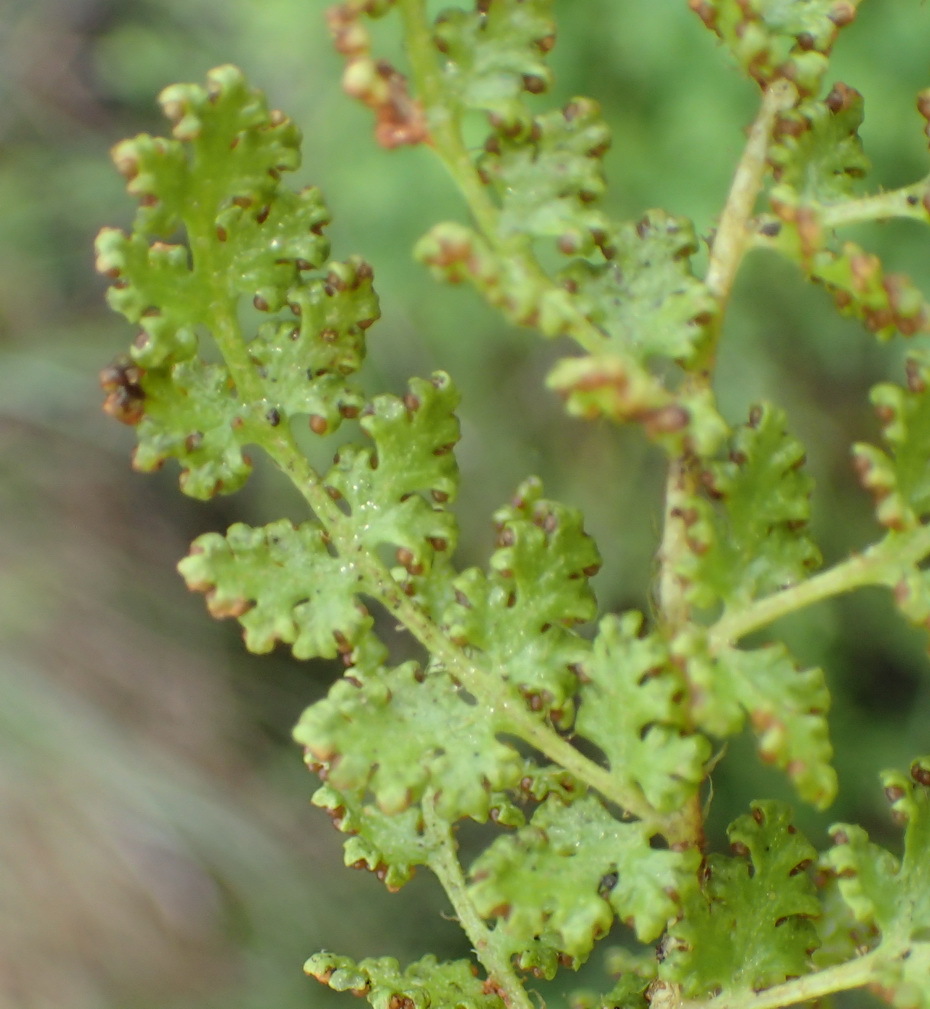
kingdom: Plantae
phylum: Tracheophyta
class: Polypodiopsida
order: Schizaeales
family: Anemiaceae
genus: Anemia
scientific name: Anemia caffrorum
